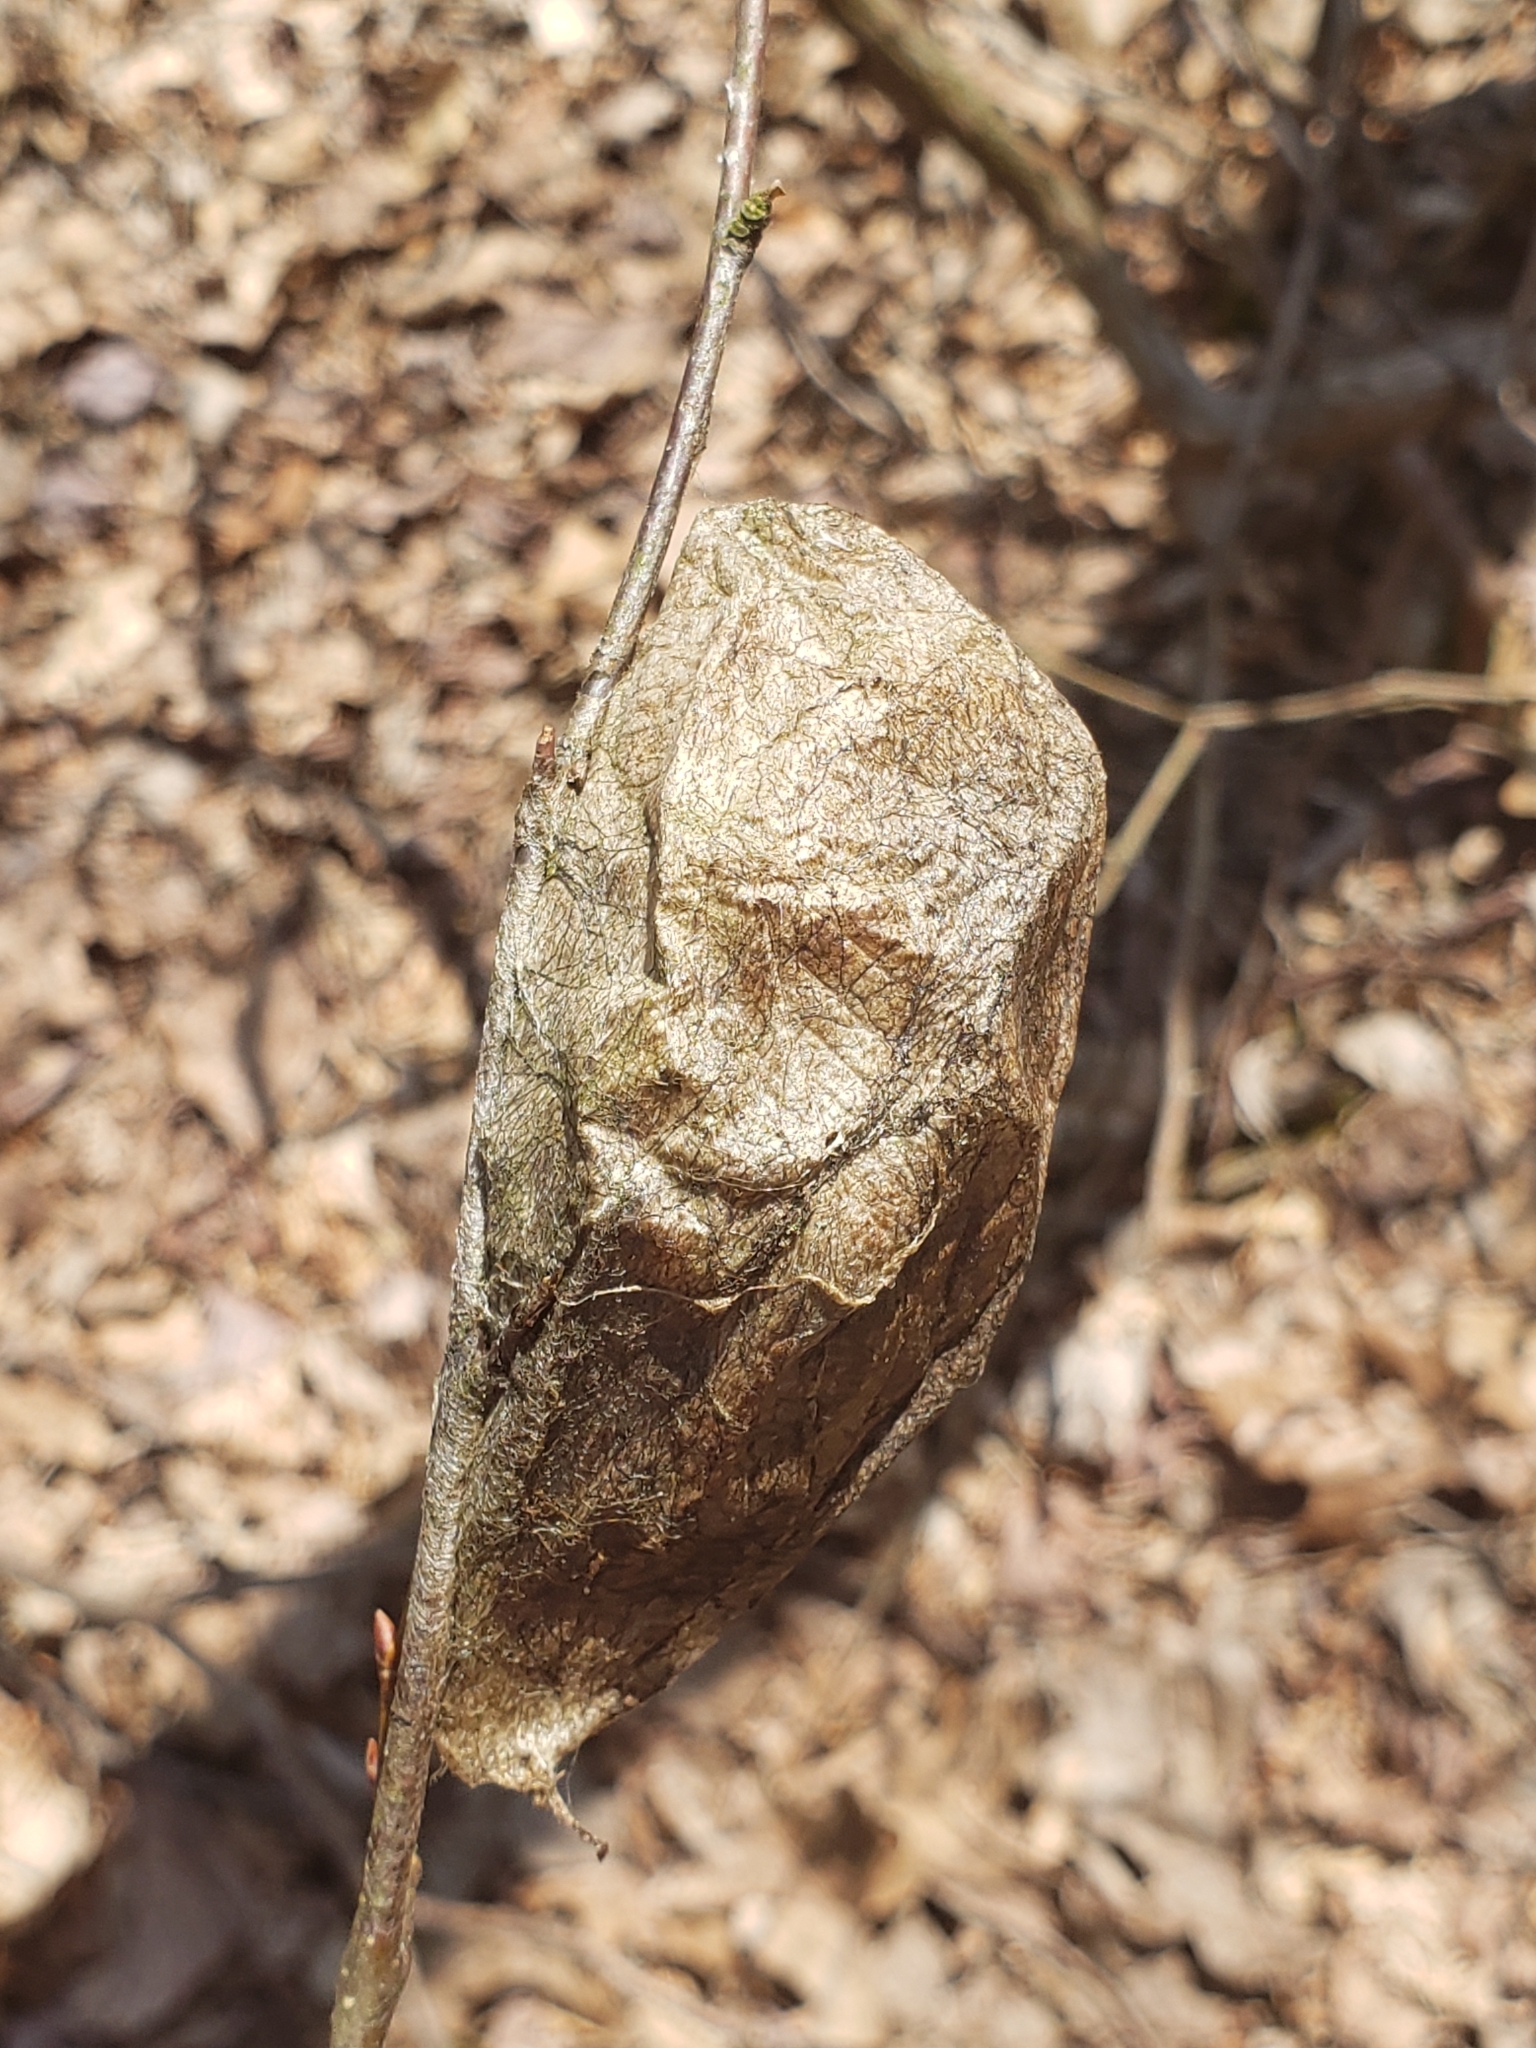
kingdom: Animalia
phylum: Arthropoda
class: Insecta
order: Lepidoptera
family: Saturniidae
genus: Hyalophora
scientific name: Hyalophora cecropia
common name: Cecropia silkmoth
